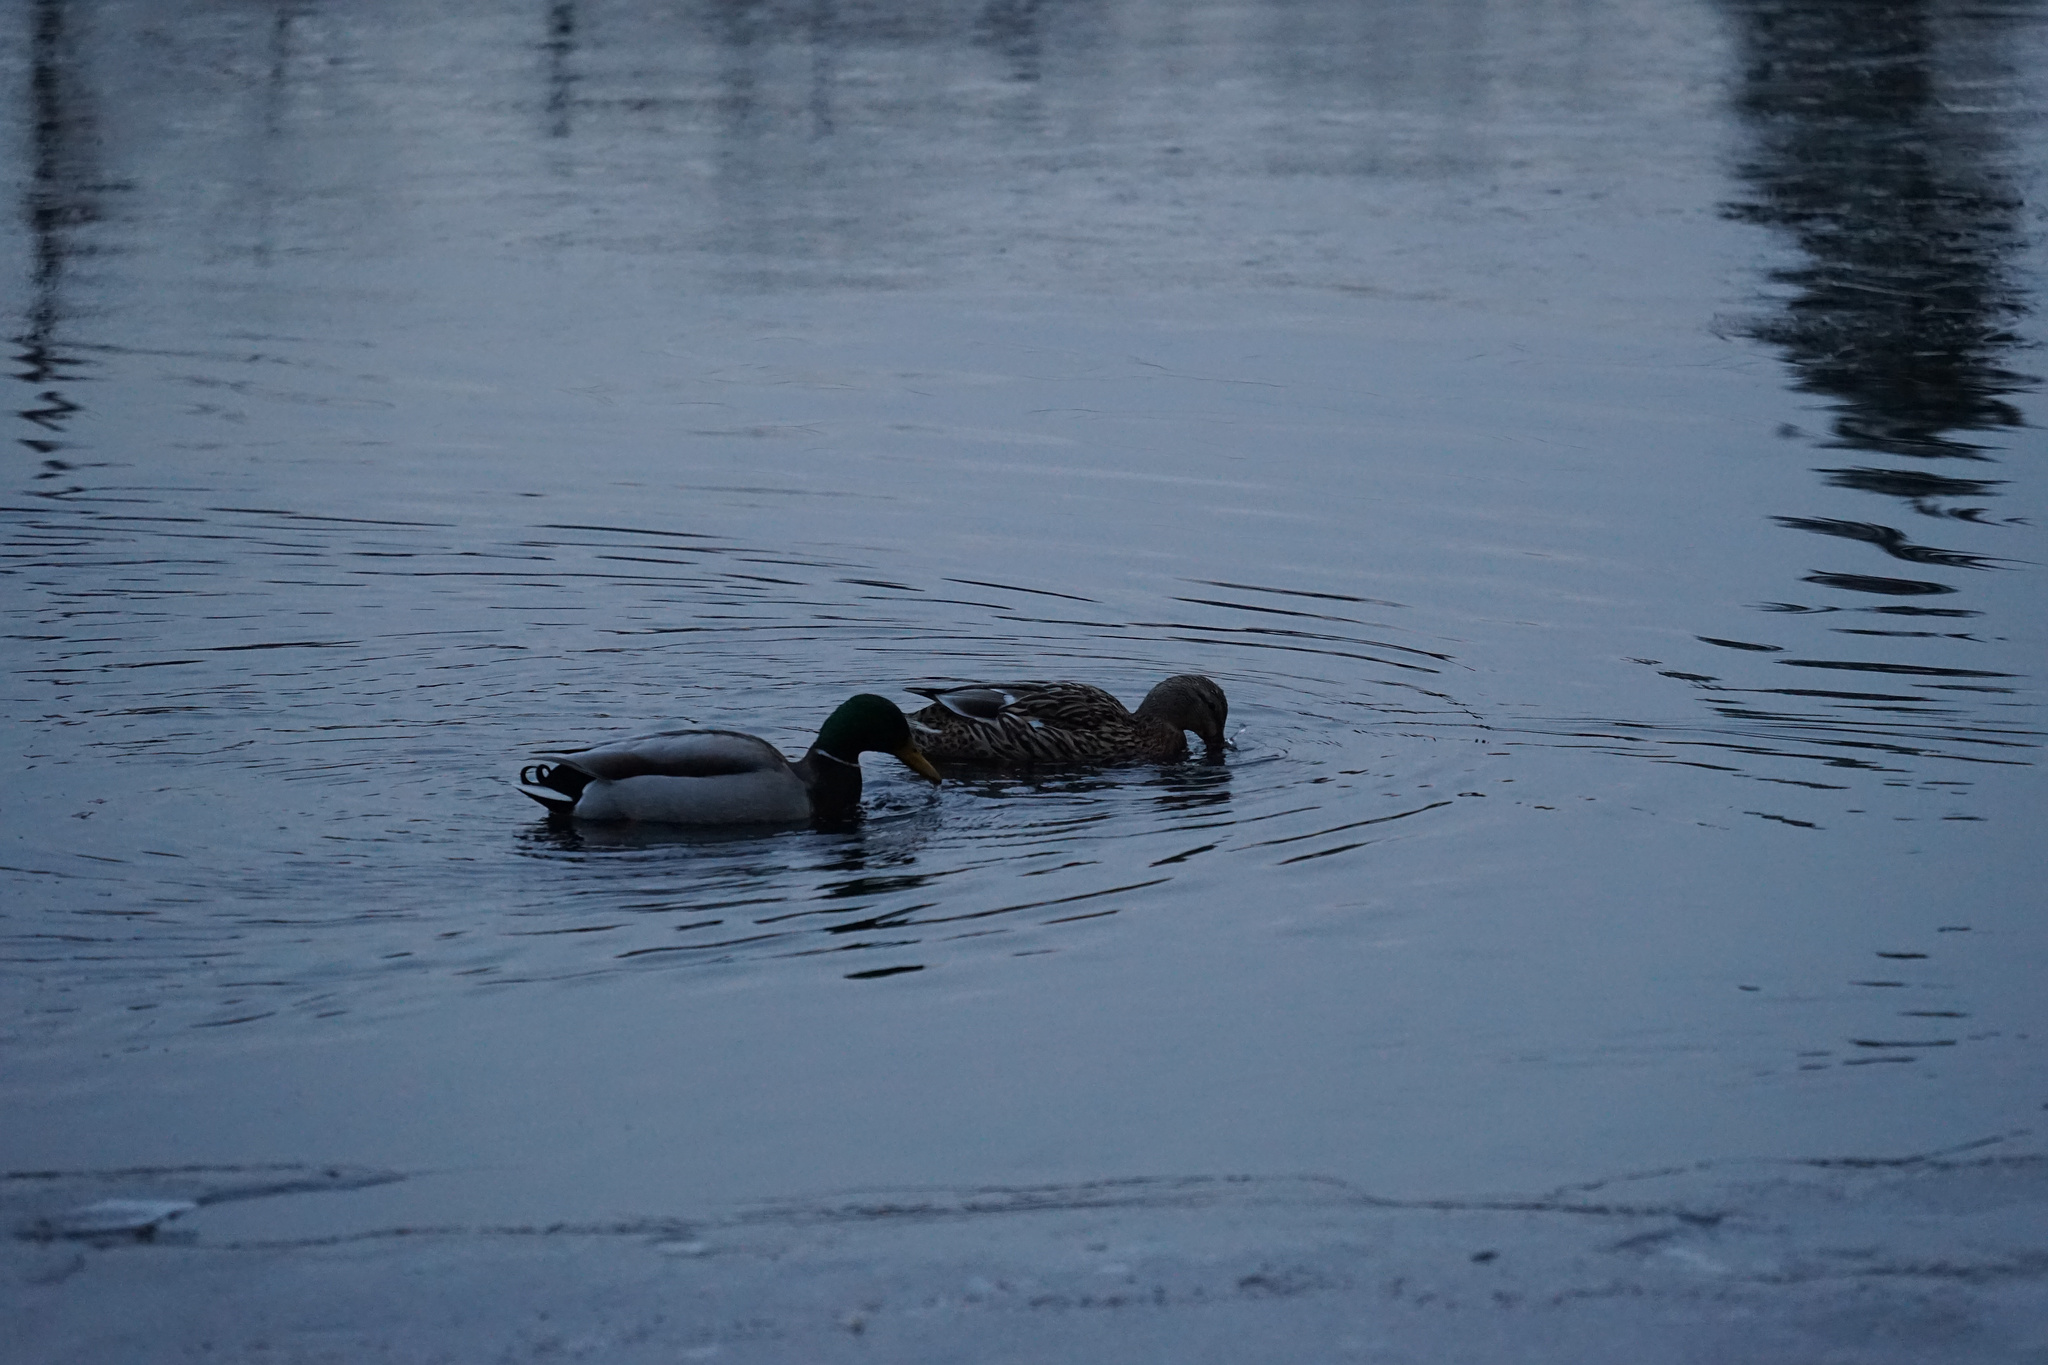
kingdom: Animalia
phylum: Chordata
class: Aves
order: Anseriformes
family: Anatidae
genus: Anas
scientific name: Anas platyrhynchos
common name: Mallard
